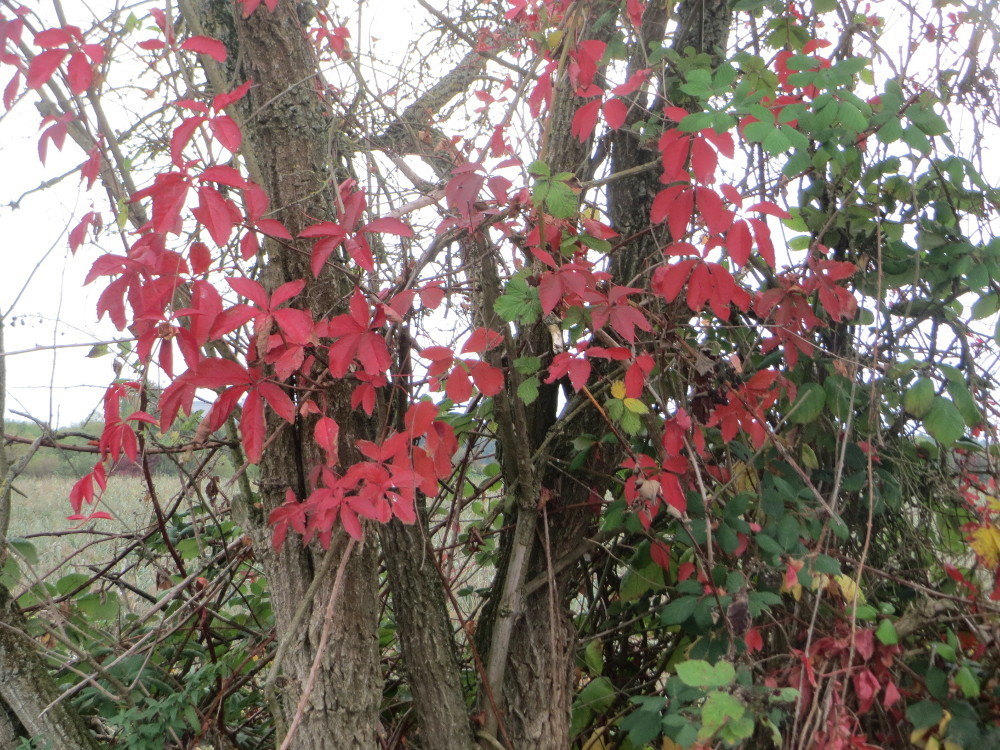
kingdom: Plantae
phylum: Tracheophyta
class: Magnoliopsida
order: Vitales
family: Vitaceae
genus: Parthenocissus
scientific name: Parthenocissus quinquefolia
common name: Virginia-creeper
